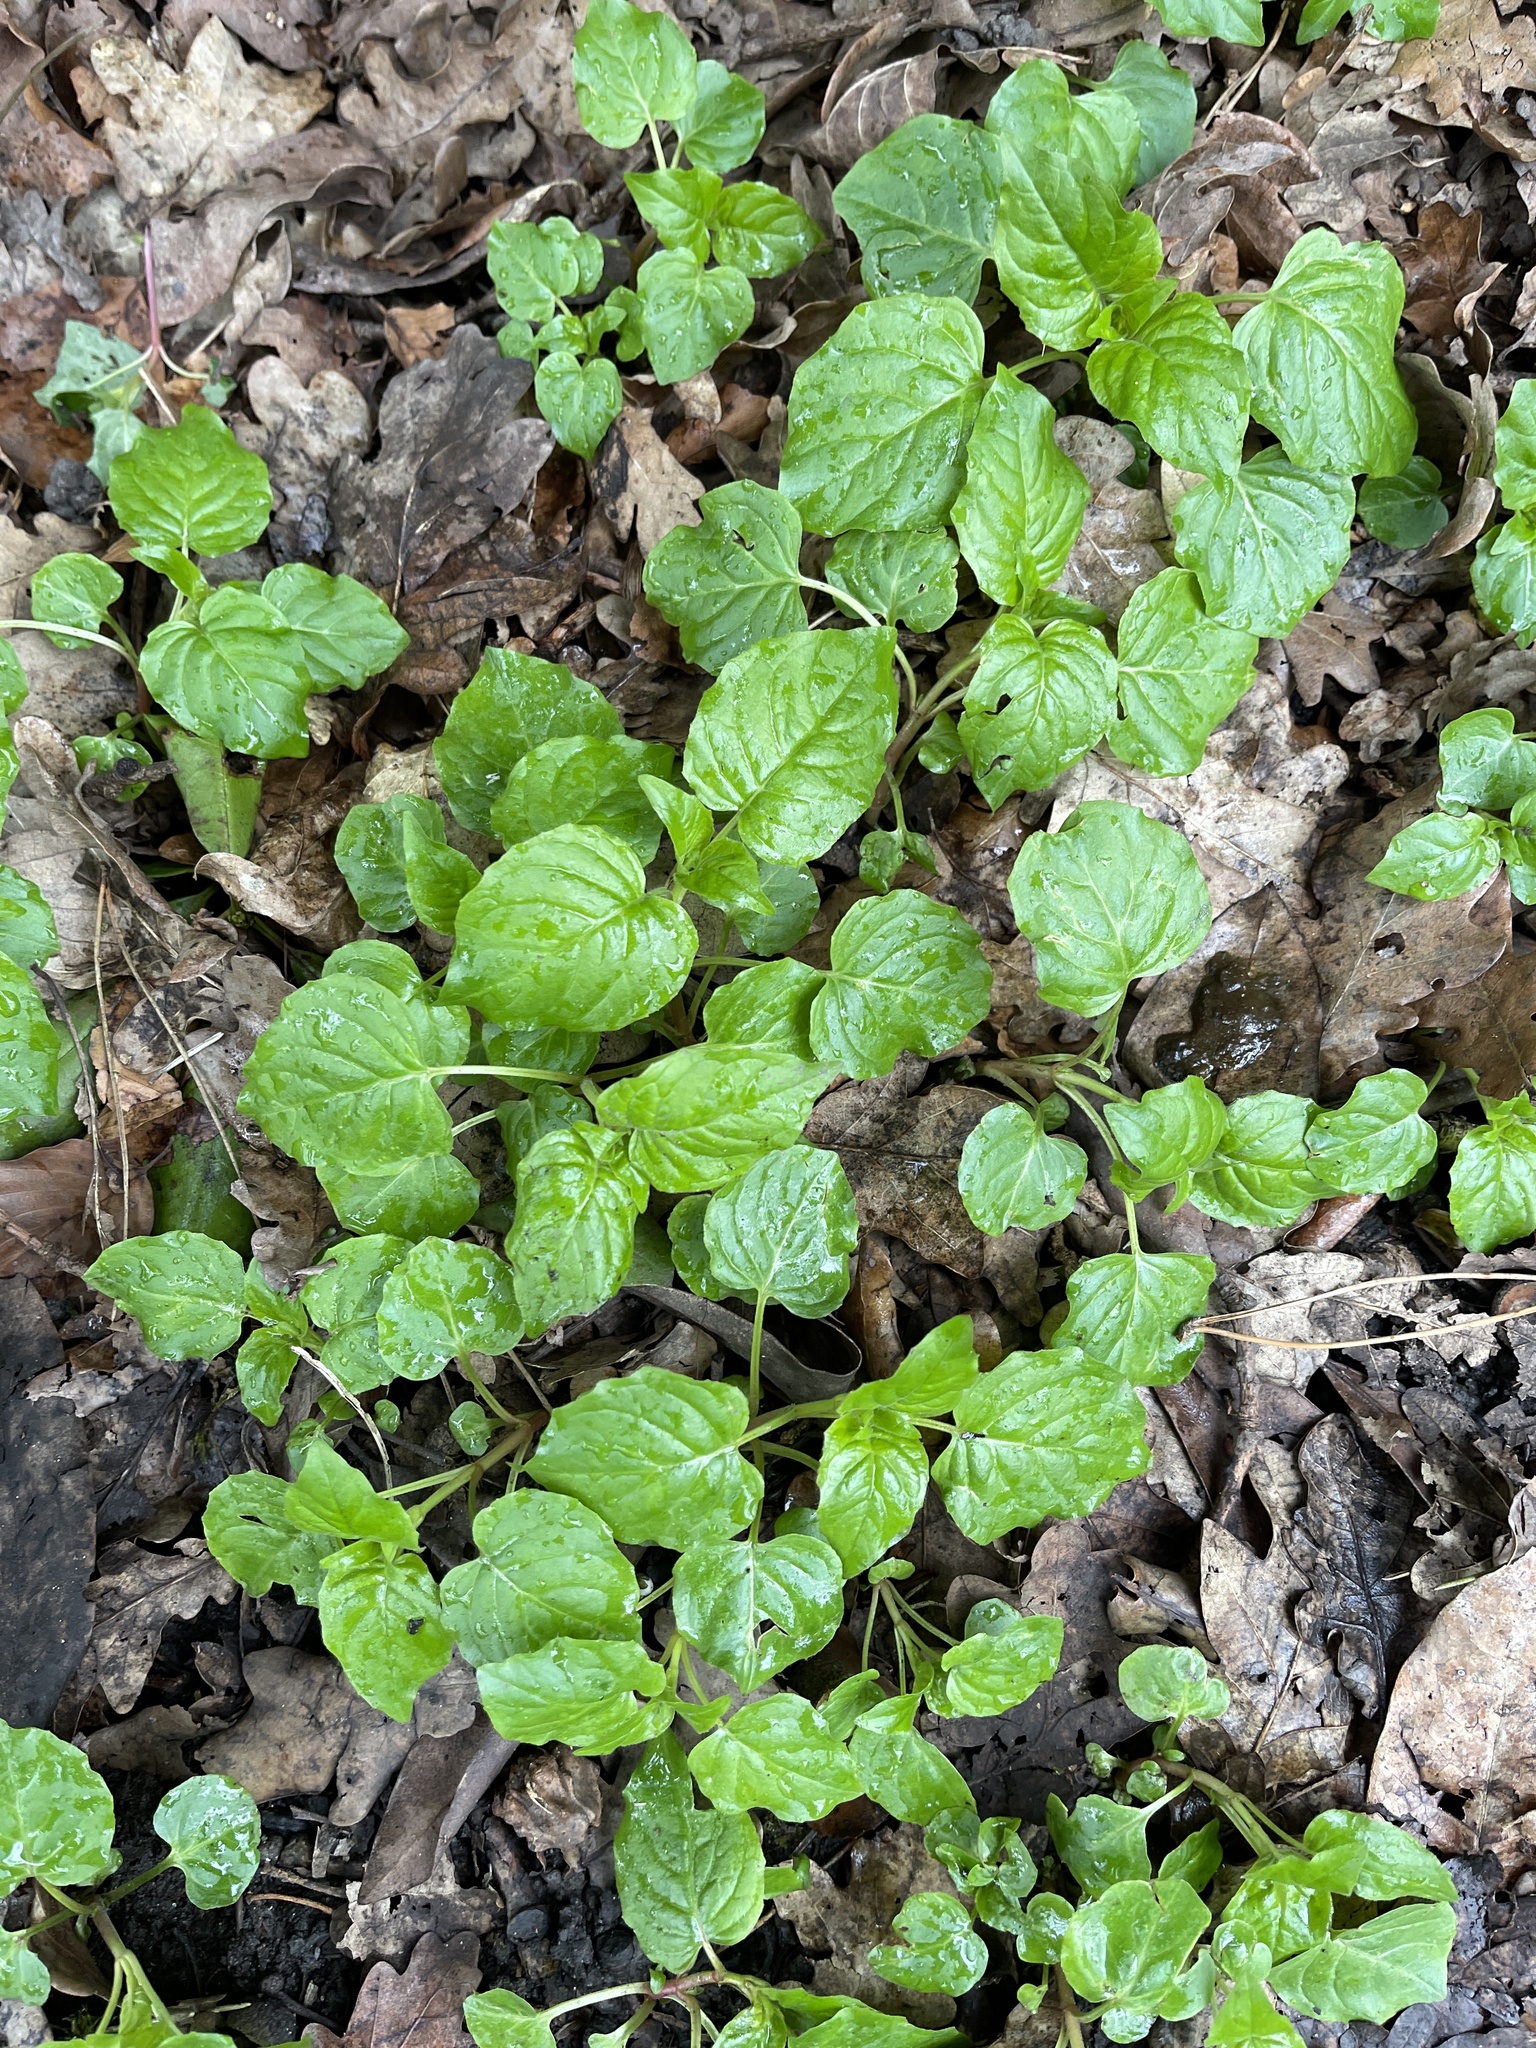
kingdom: Plantae
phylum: Tracheophyta
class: Magnoliopsida
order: Myrtales
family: Onagraceae
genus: Circaea
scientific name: Circaea lutetiana
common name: Enchanter's-nightshade
